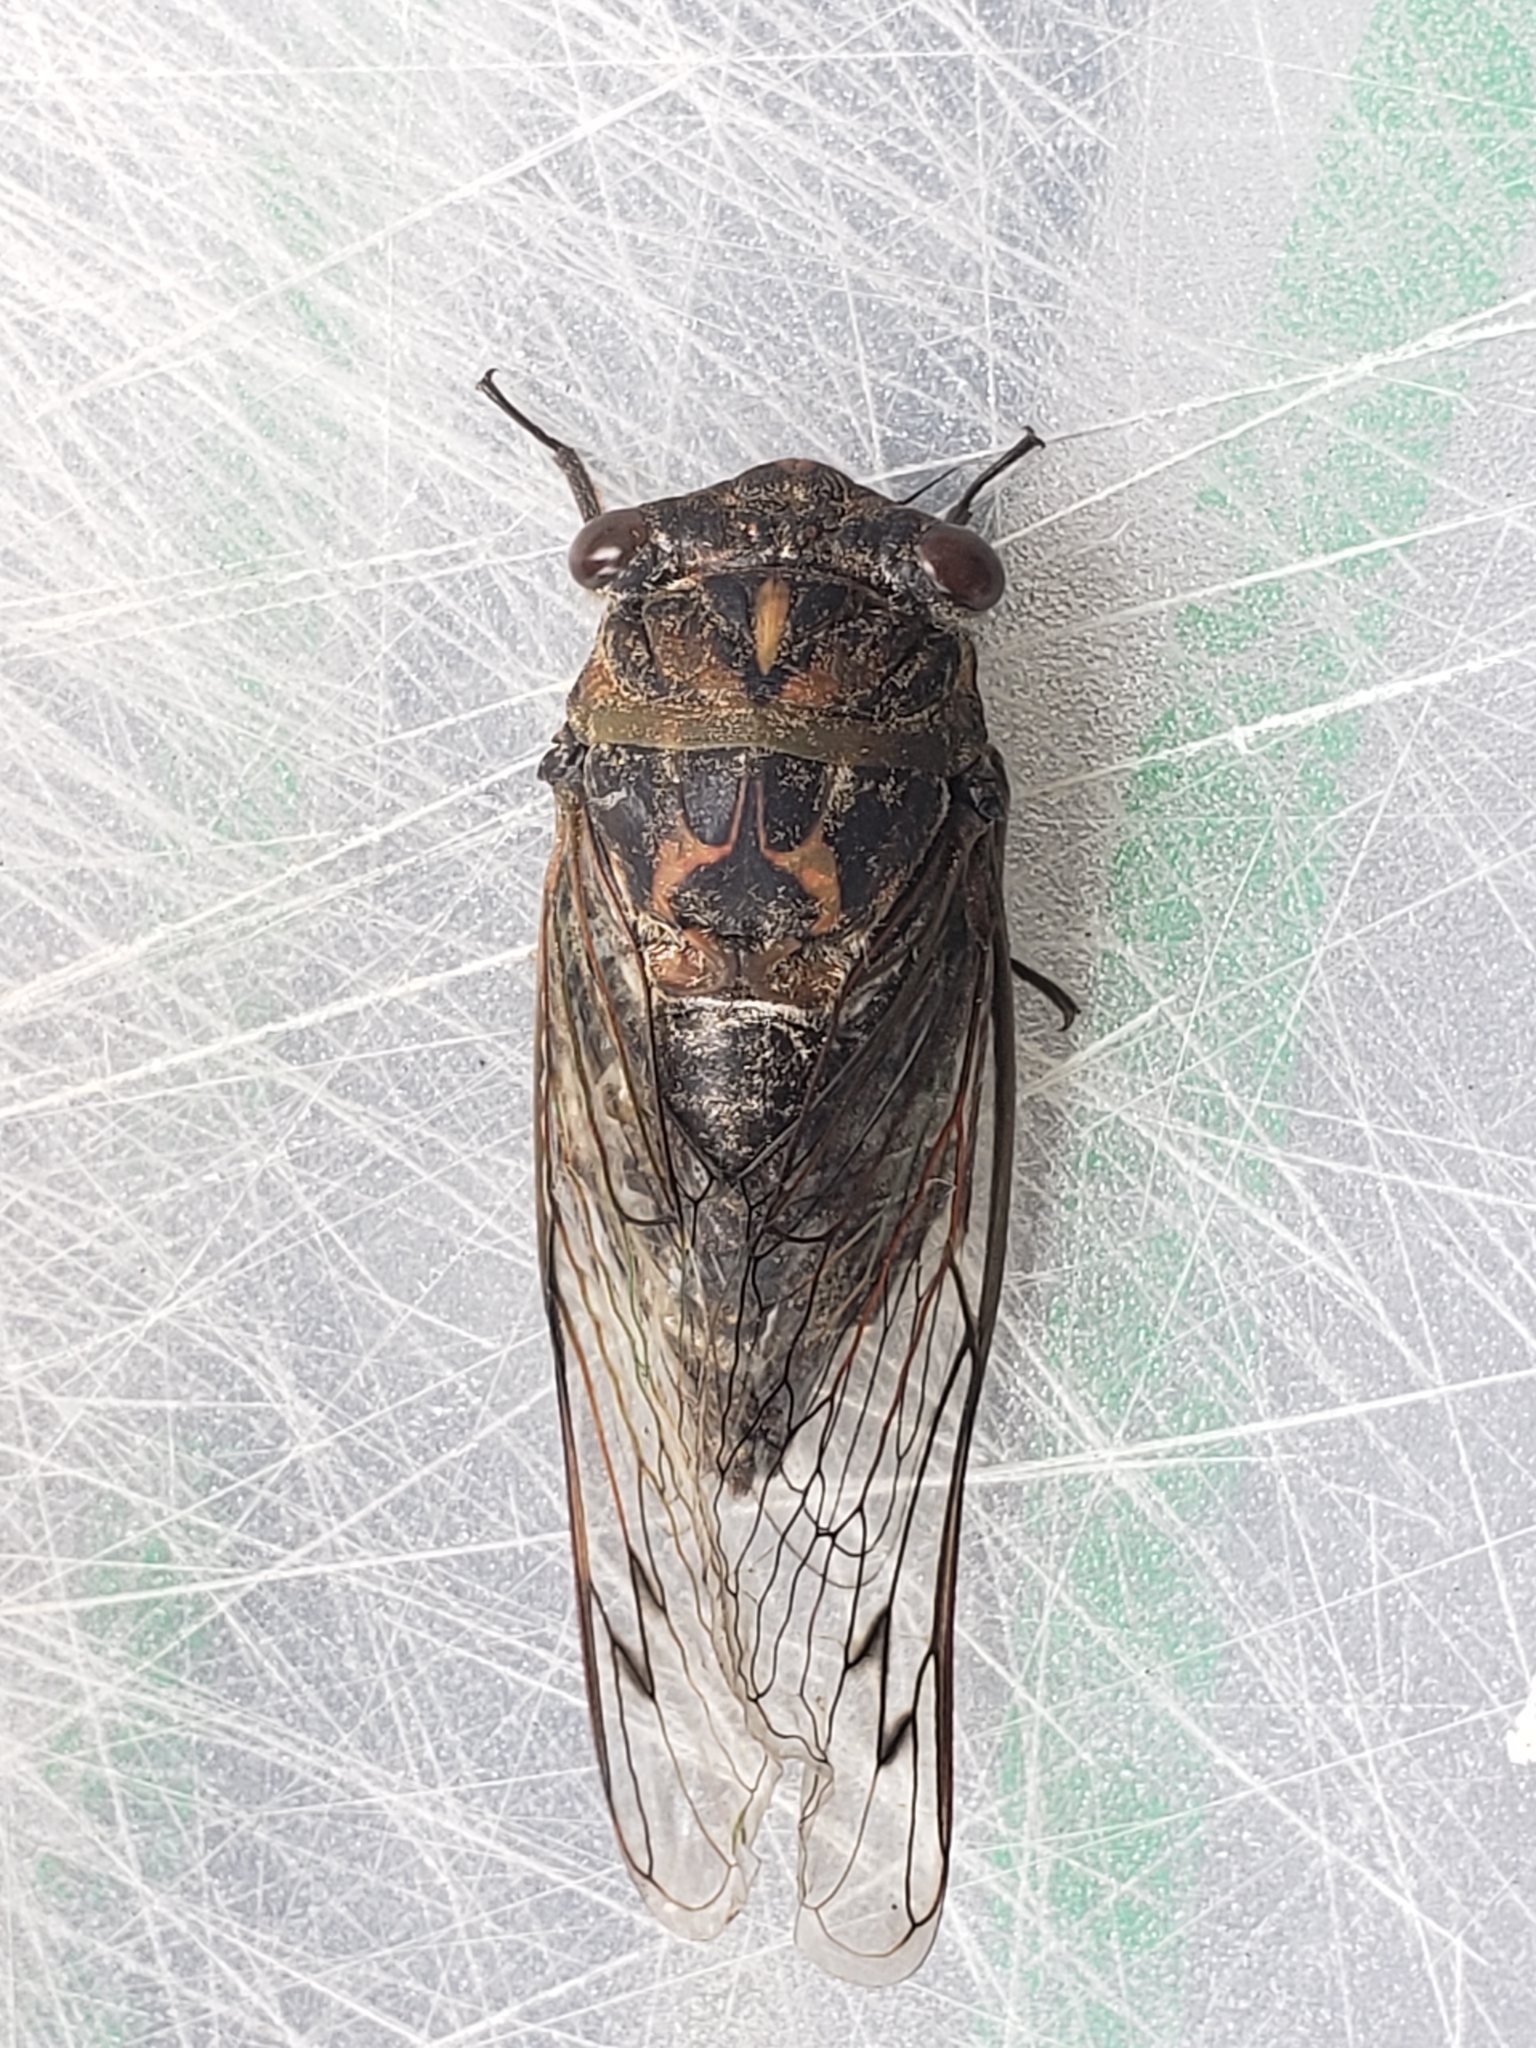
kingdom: Animalia
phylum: Arthropoda
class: Insecta
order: Hemiptera
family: Cicadidae
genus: Neotibicen
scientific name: Neotibicen canicularis
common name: God-day cicada
